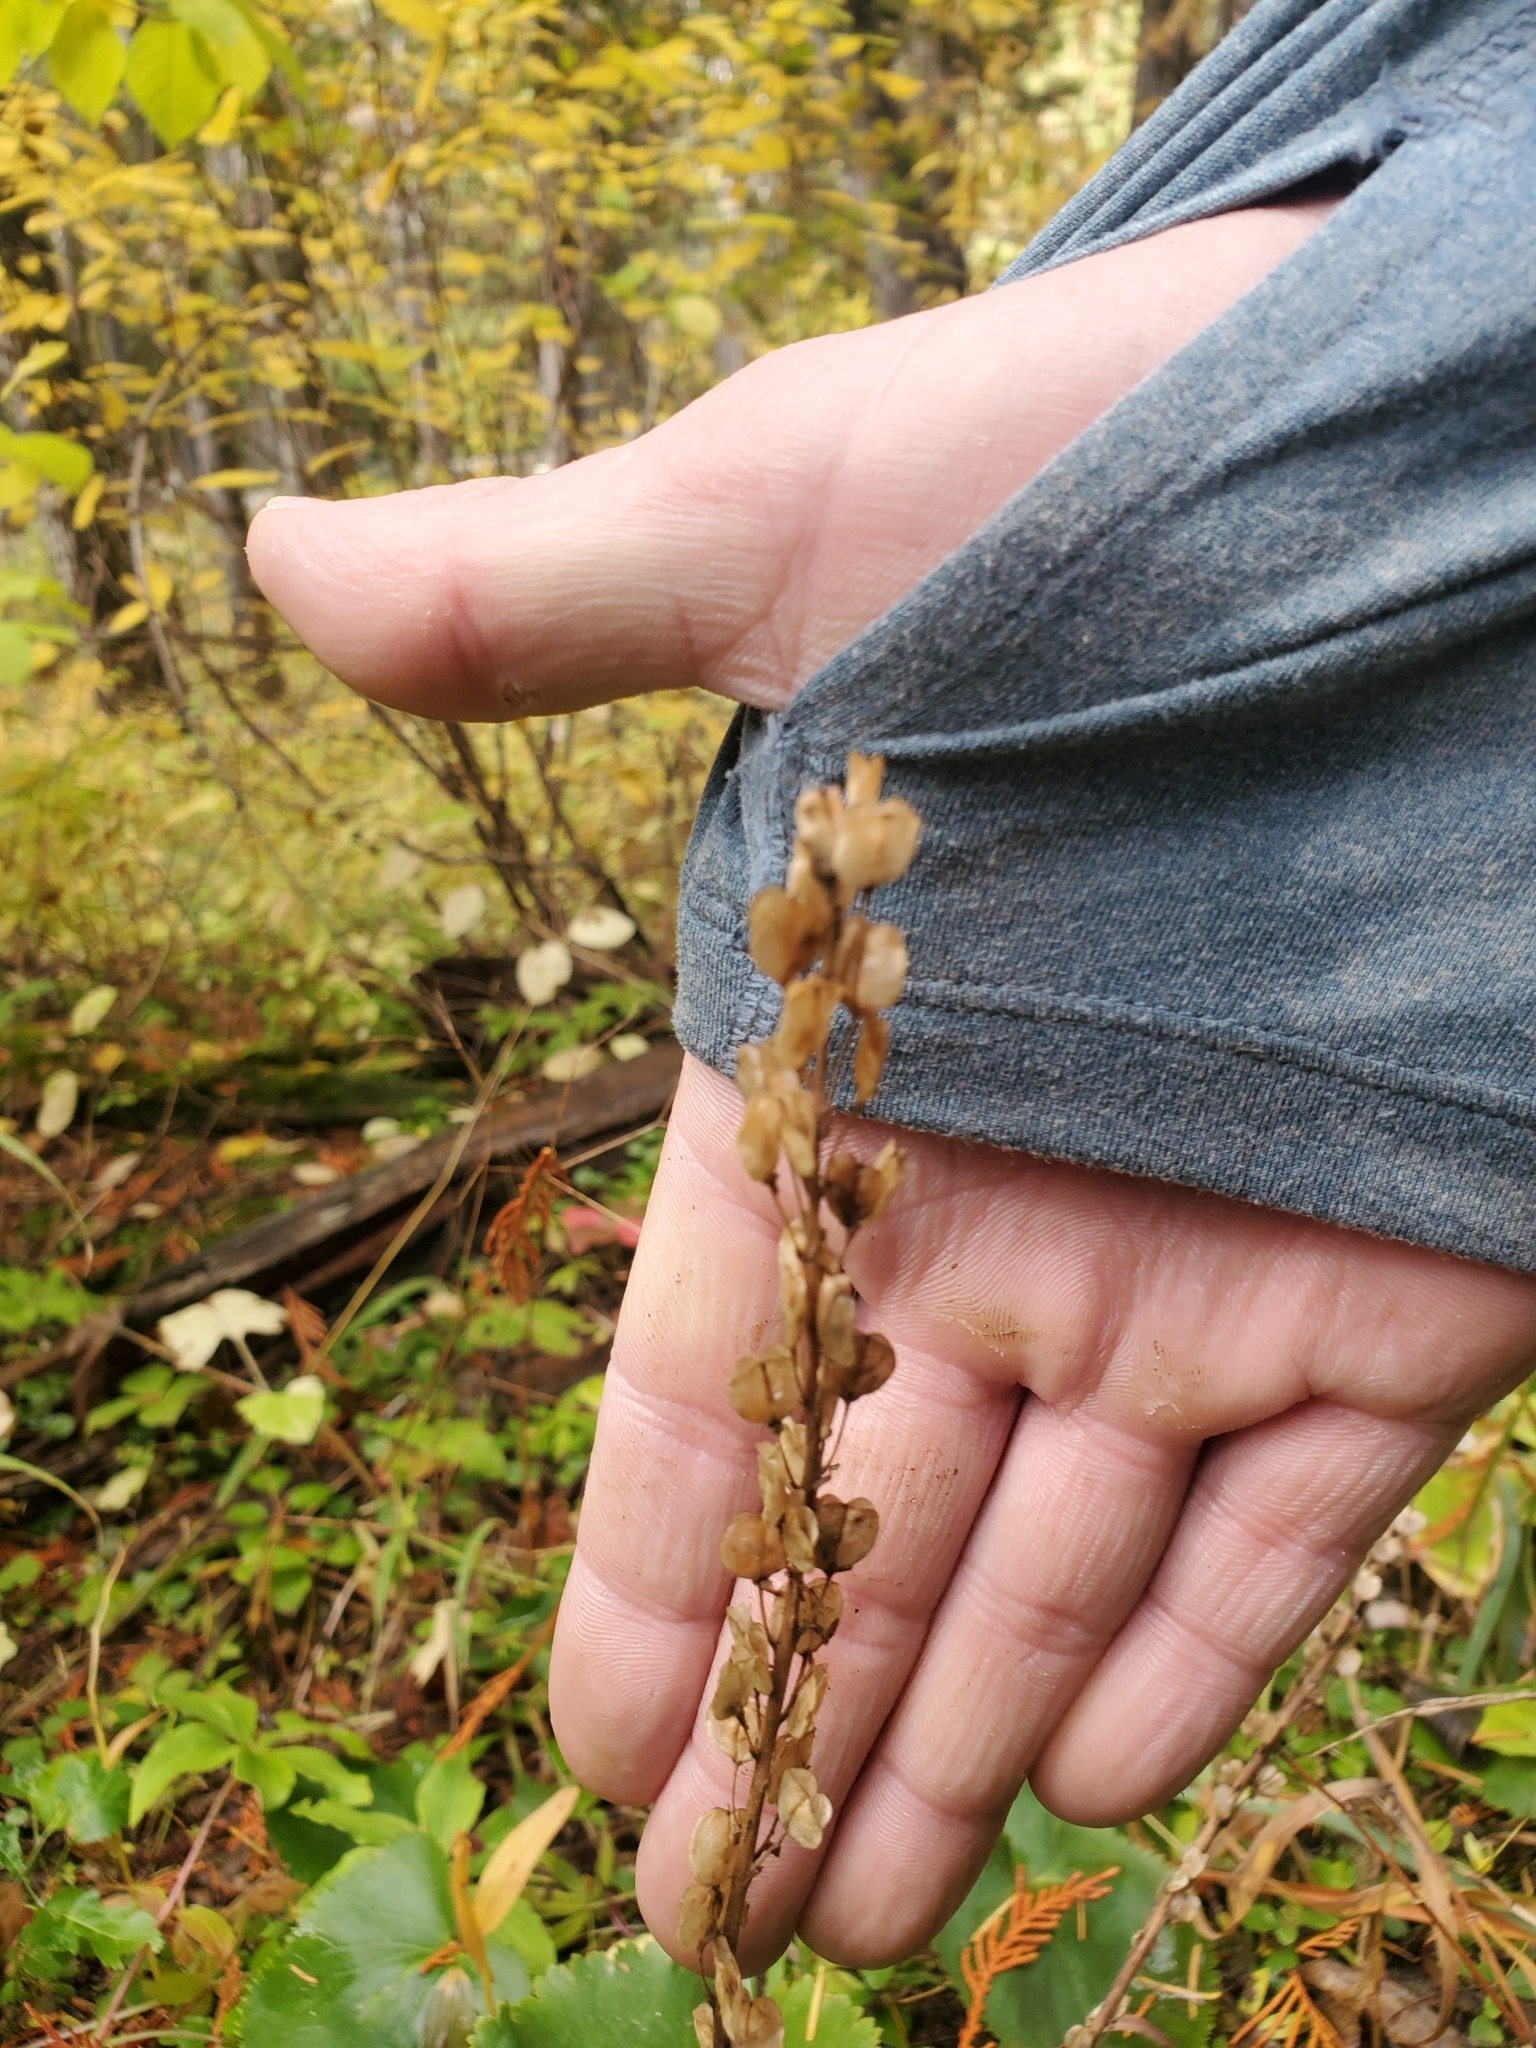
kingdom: Plantae
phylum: Tracheophyta
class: Magnoliopsida
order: Lamiales
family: Plantaginaceae
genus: Synthyris
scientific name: Synthyris missurica
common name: Kitten-tails
